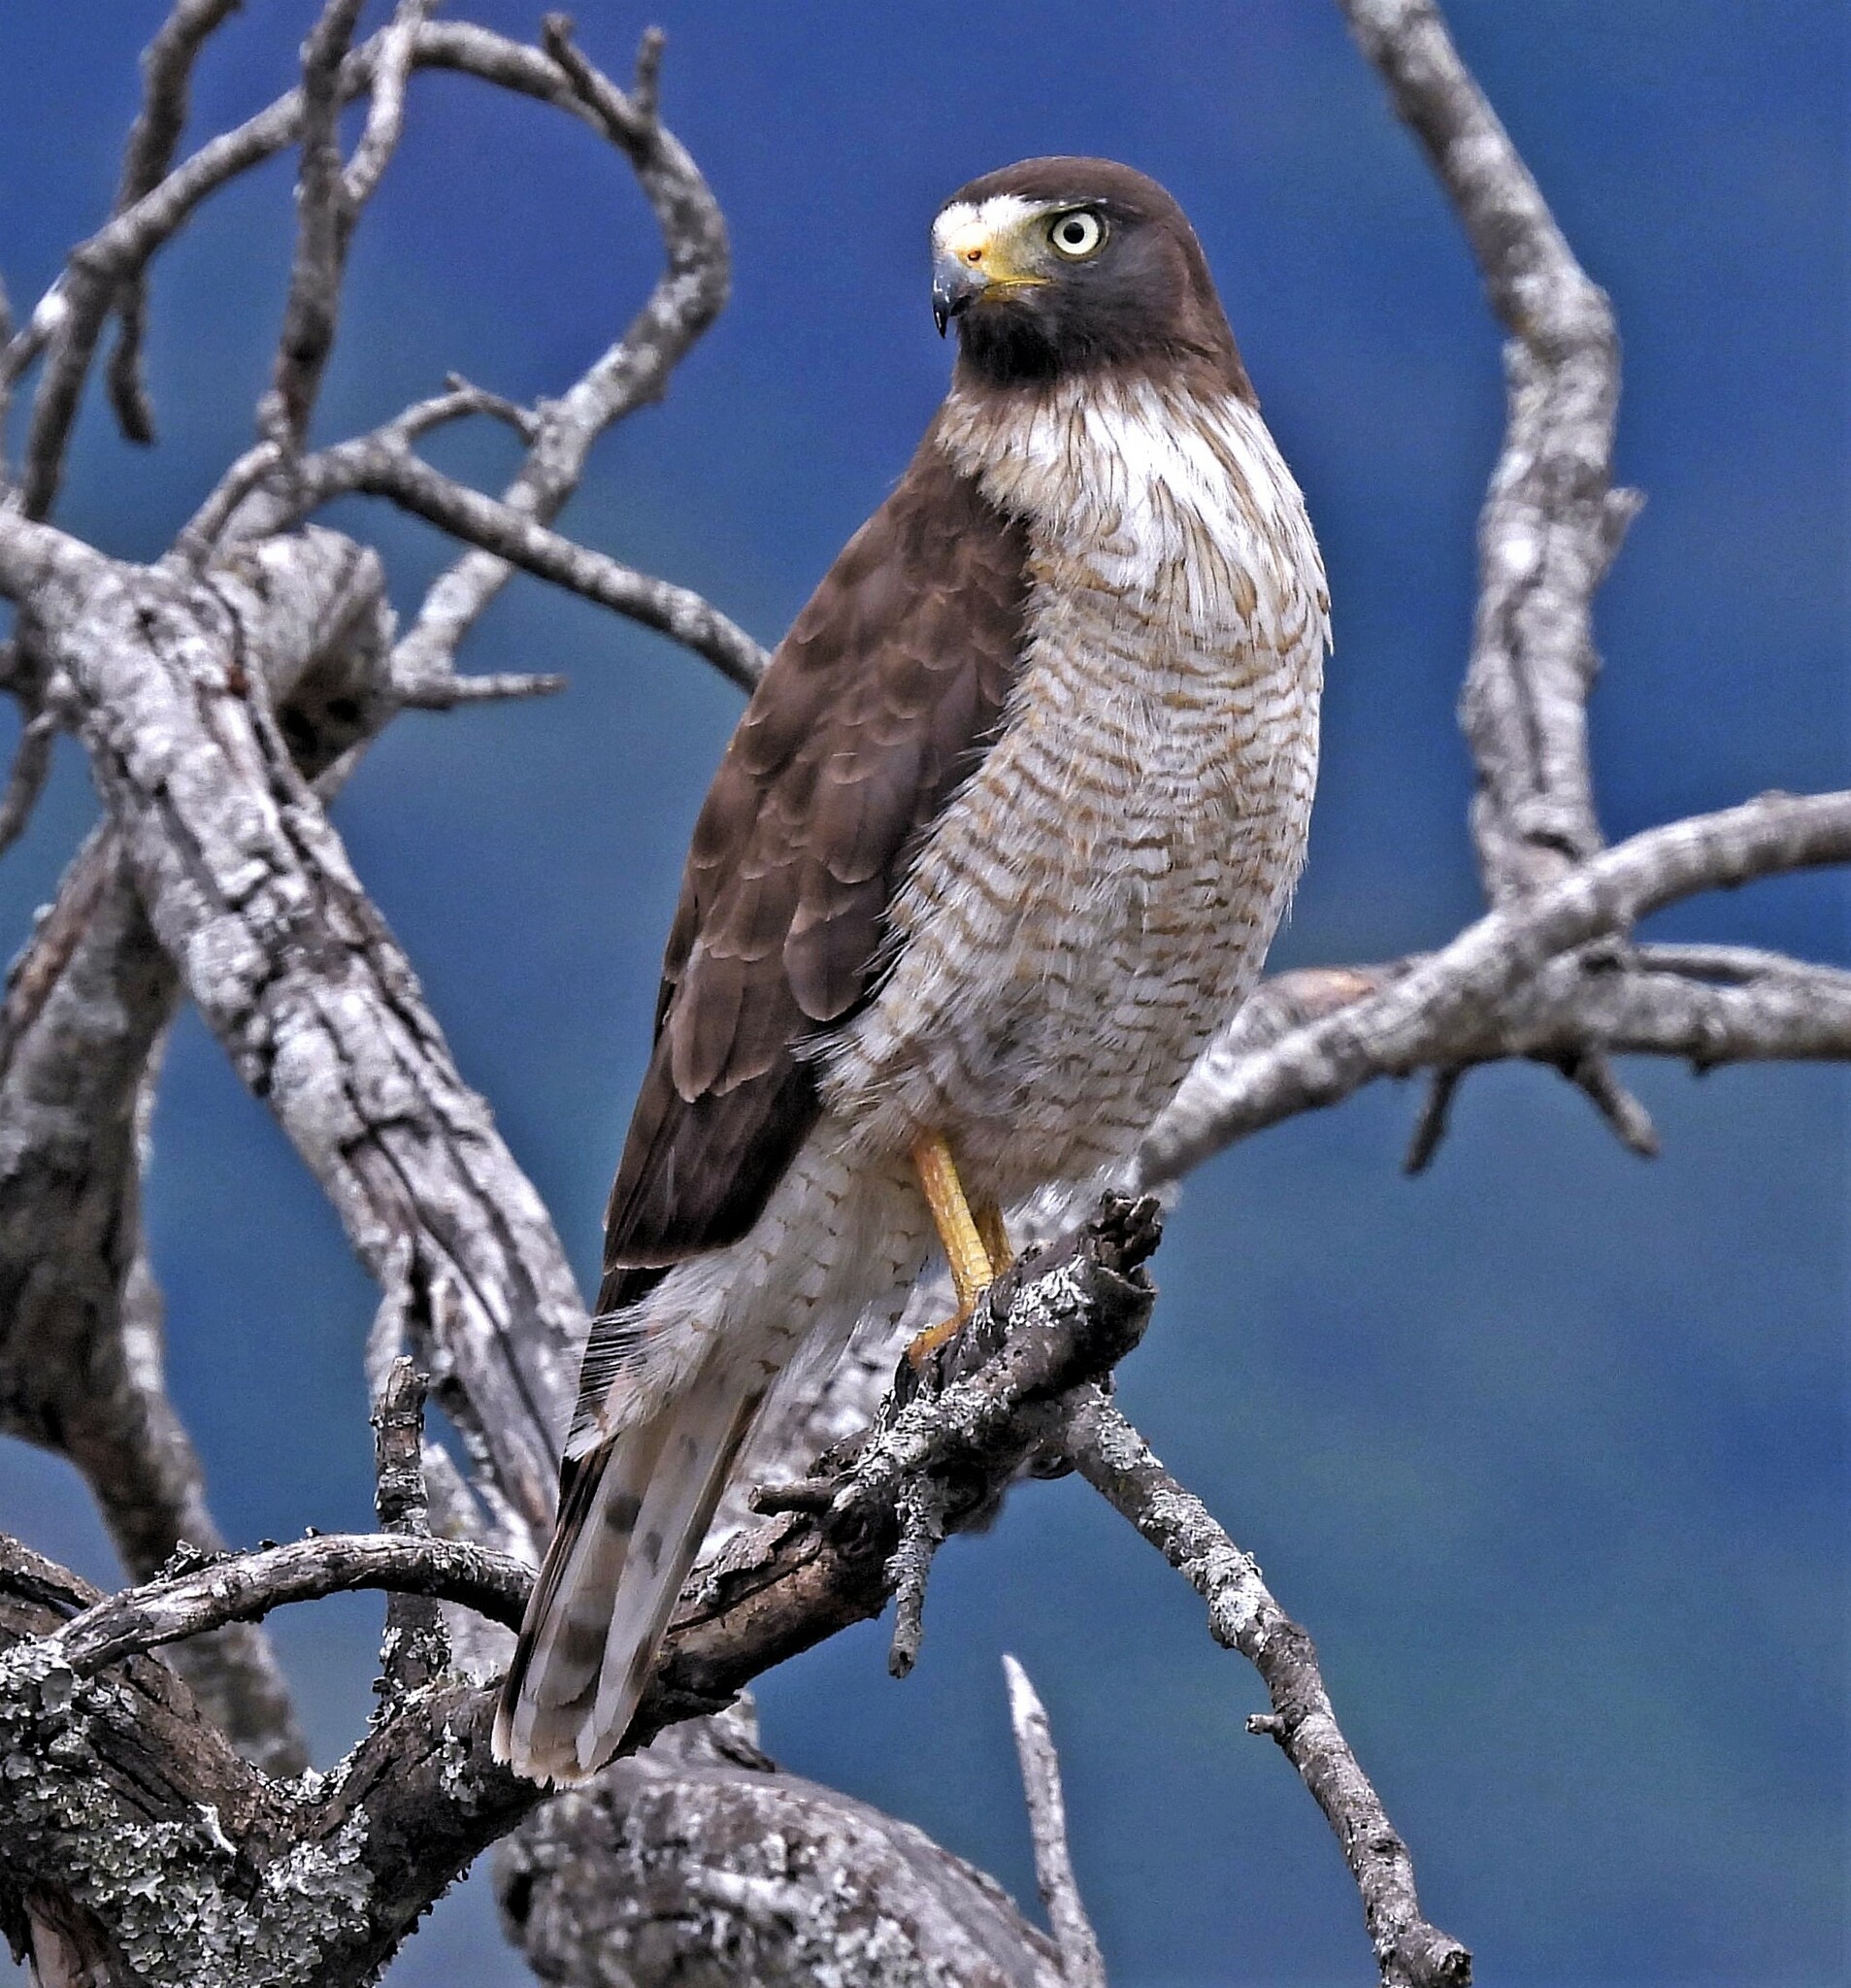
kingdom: Animalia
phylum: Chordata
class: Aves
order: Accipitriformes
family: Accipitridae
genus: Rupornis
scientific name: Rupornis magnirostris
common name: Roadside hawk
